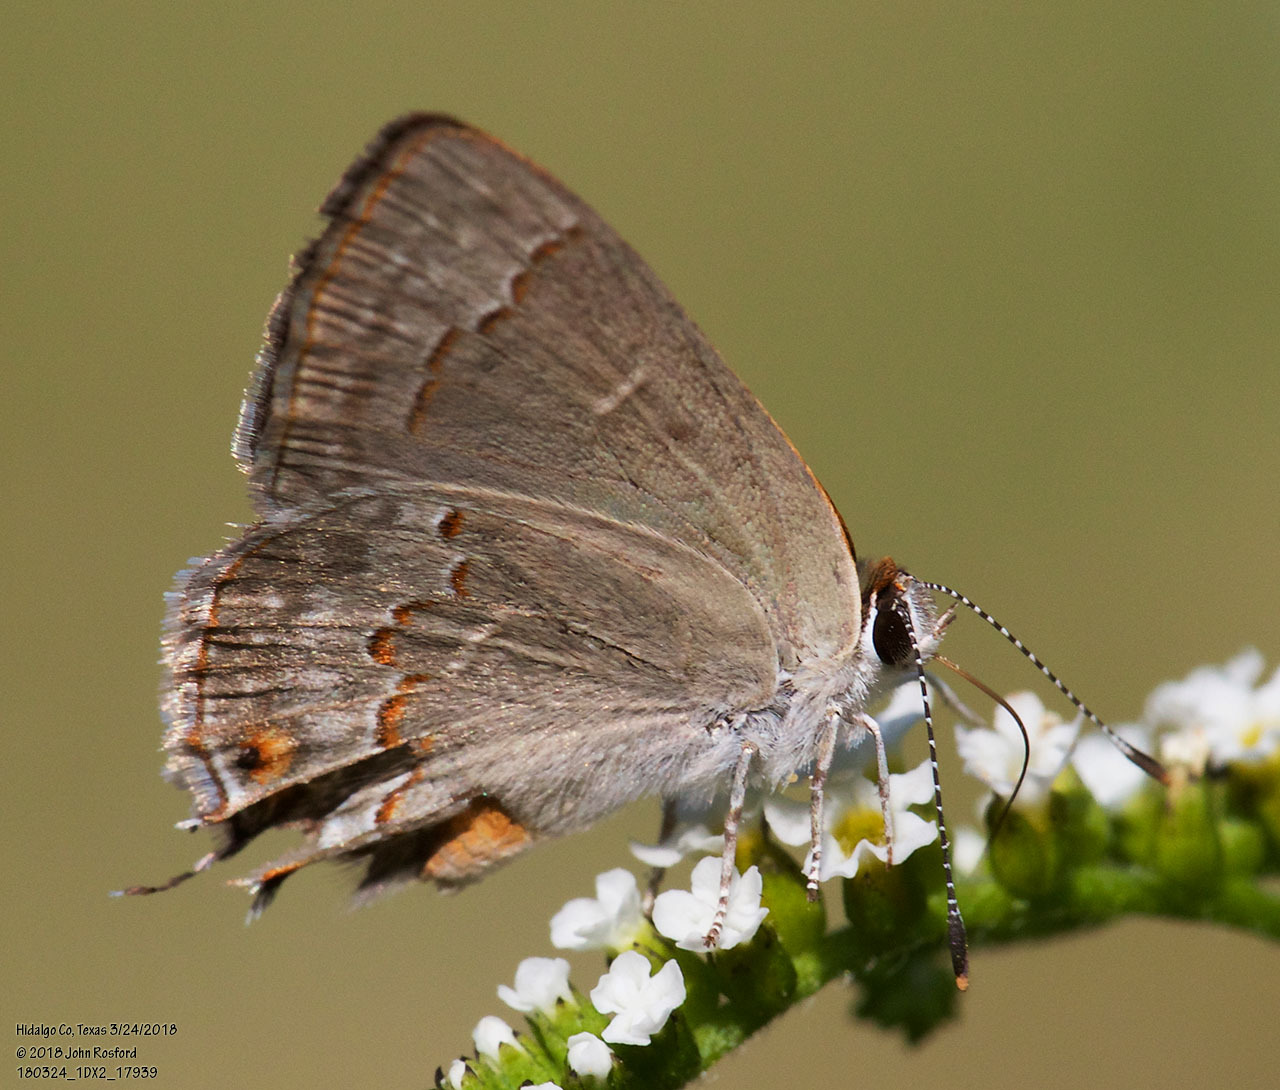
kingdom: Animalia
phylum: Arthropoda
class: Insecta
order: Lepidoptera
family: Lycaenidae
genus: Thecla
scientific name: Thecla rufofusca
